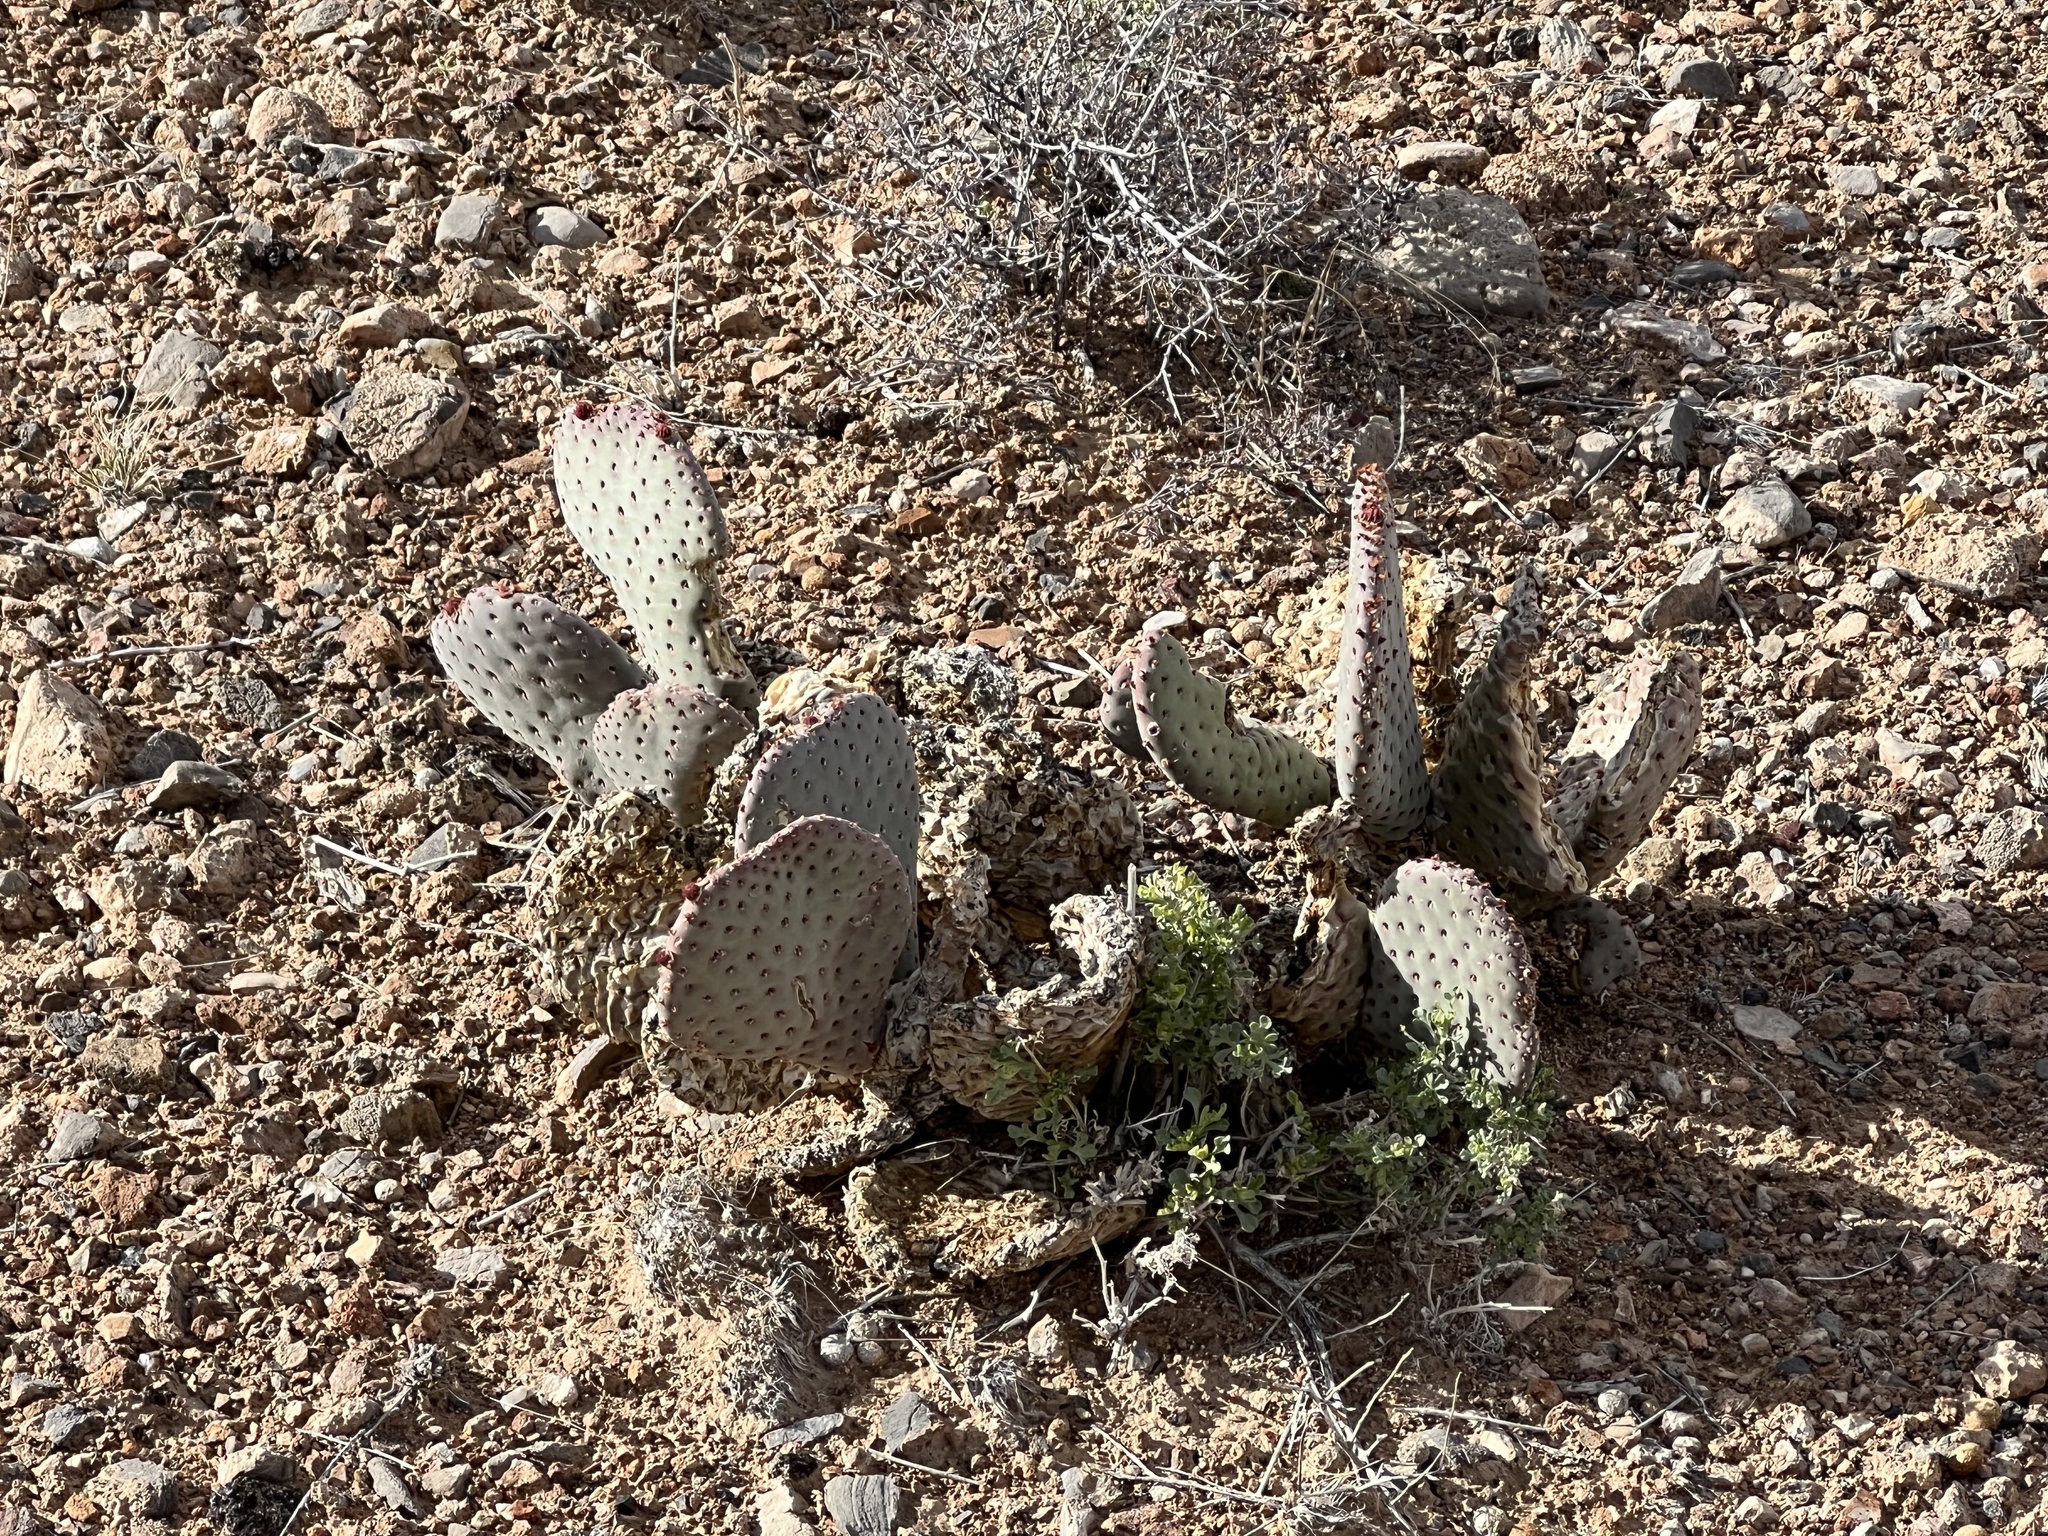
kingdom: Plantae
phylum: Tracheophyta
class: Magnoliopsida
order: Caryophyllales
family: Cactaceae
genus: Opuntia
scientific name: Opuntia basilaris
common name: Beavertail prickly-pear
